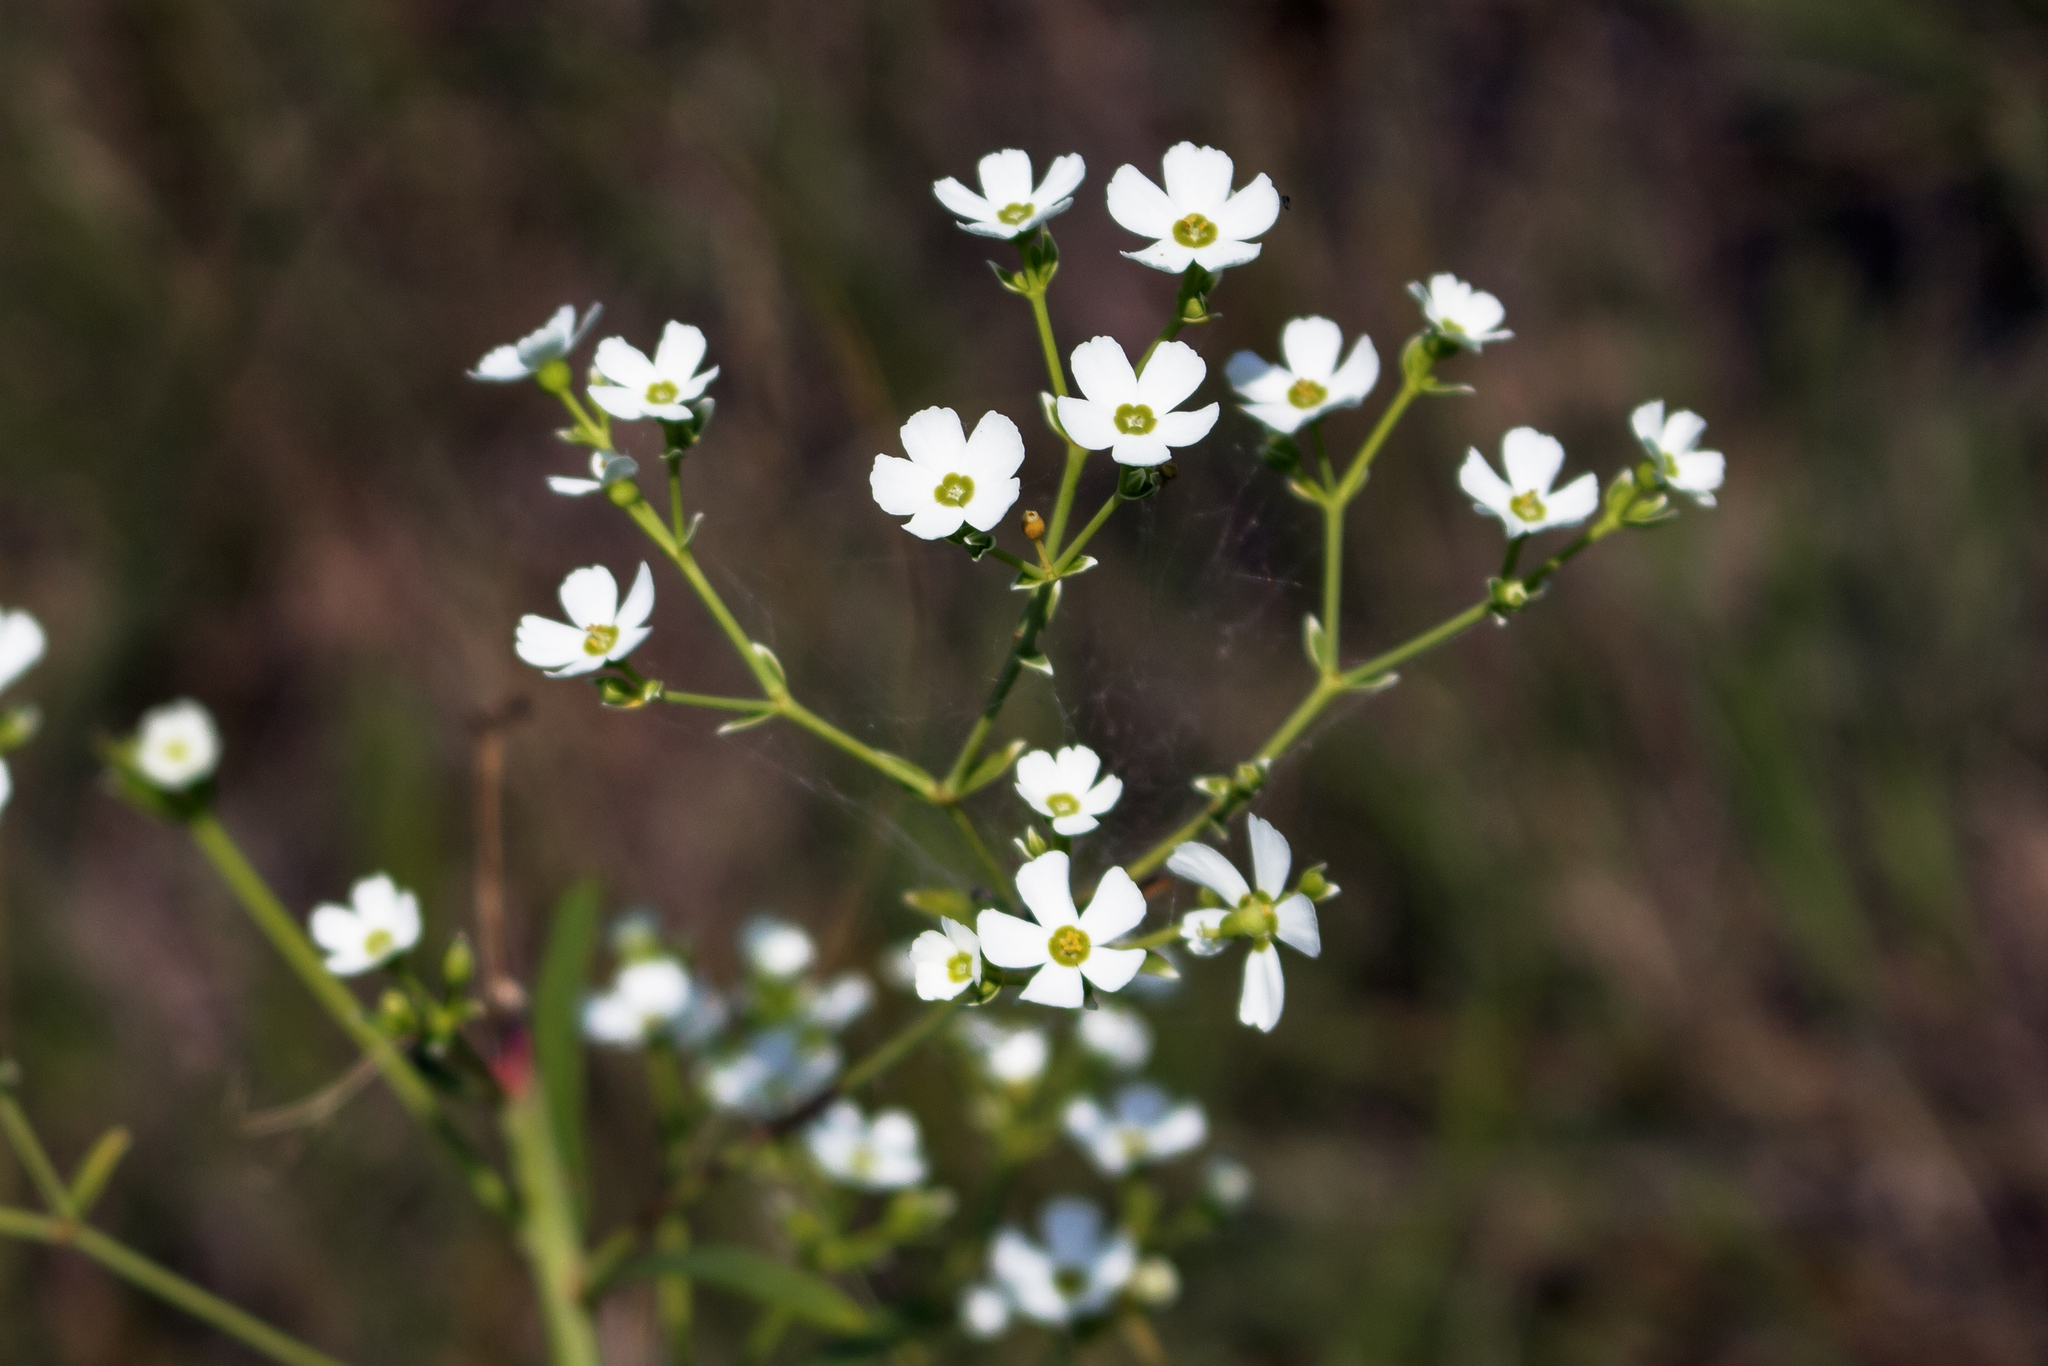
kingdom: Plantae
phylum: Tracheophyta
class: Magnoliopsida
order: Malpighiales
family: Euphorbiaceae
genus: Euphorbia
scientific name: Euphorbia corollata
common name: Flowering spurge
